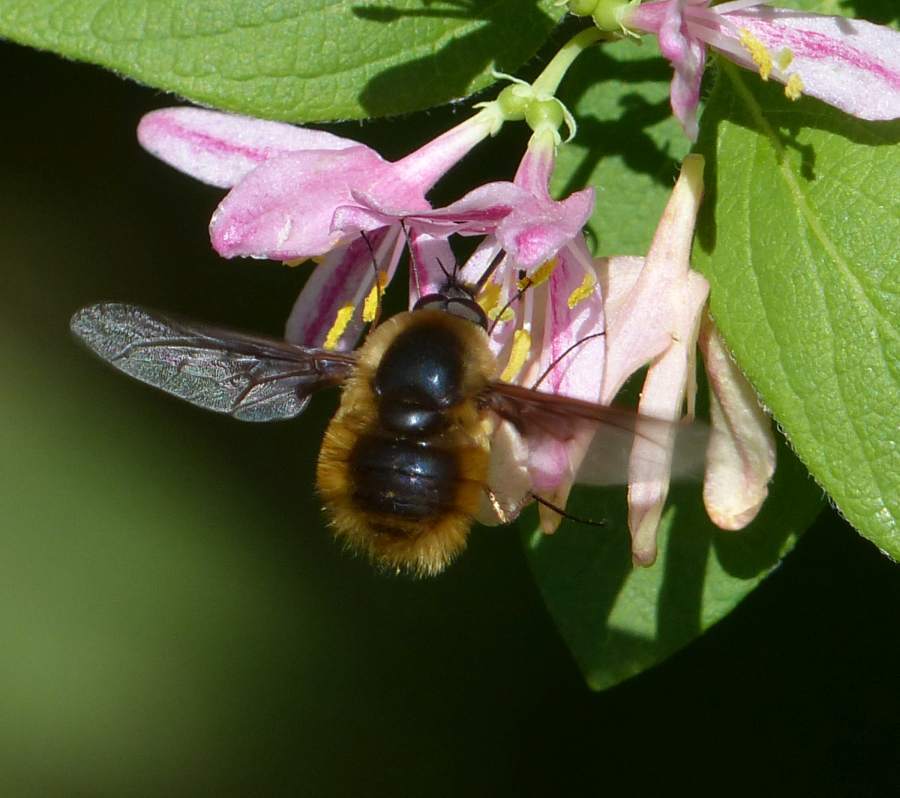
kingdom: Animalia
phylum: Arthropoda
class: Insecta
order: Diptera
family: Bombyliidae
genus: Bombylius
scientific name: Bombylius mexicanus
